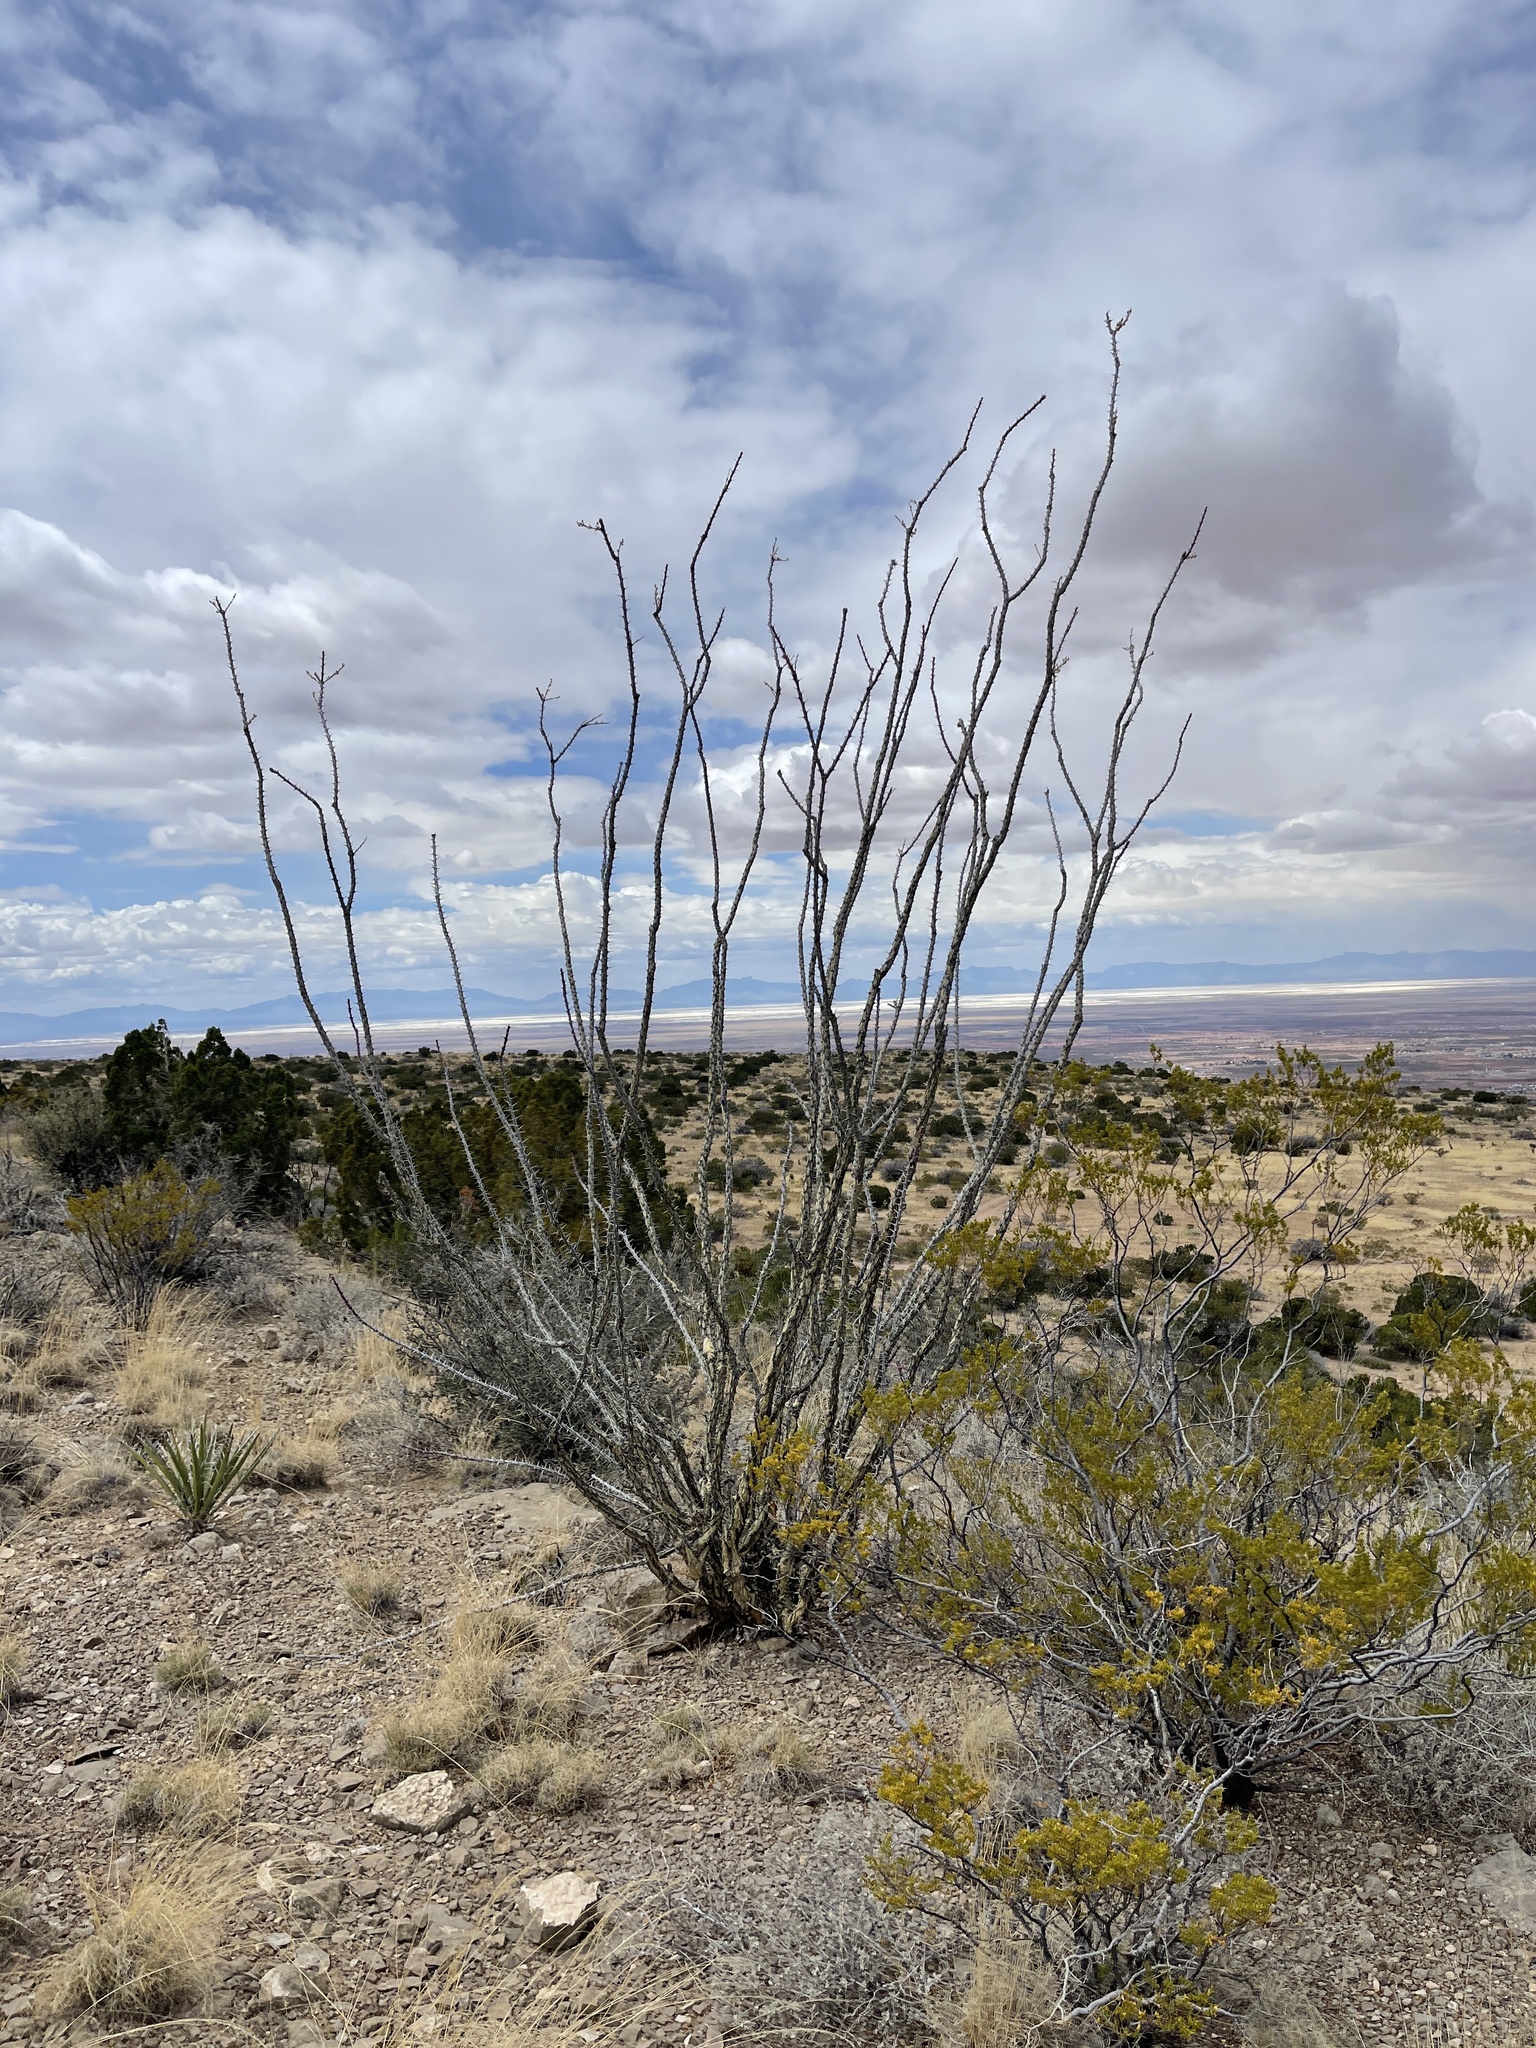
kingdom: Plantae
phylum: Tracheophyta
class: Magnoliopsida
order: Ericales
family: Fouquieriaceae
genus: Fouquieria
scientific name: Fouquieria splendens
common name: Vine-cactus
